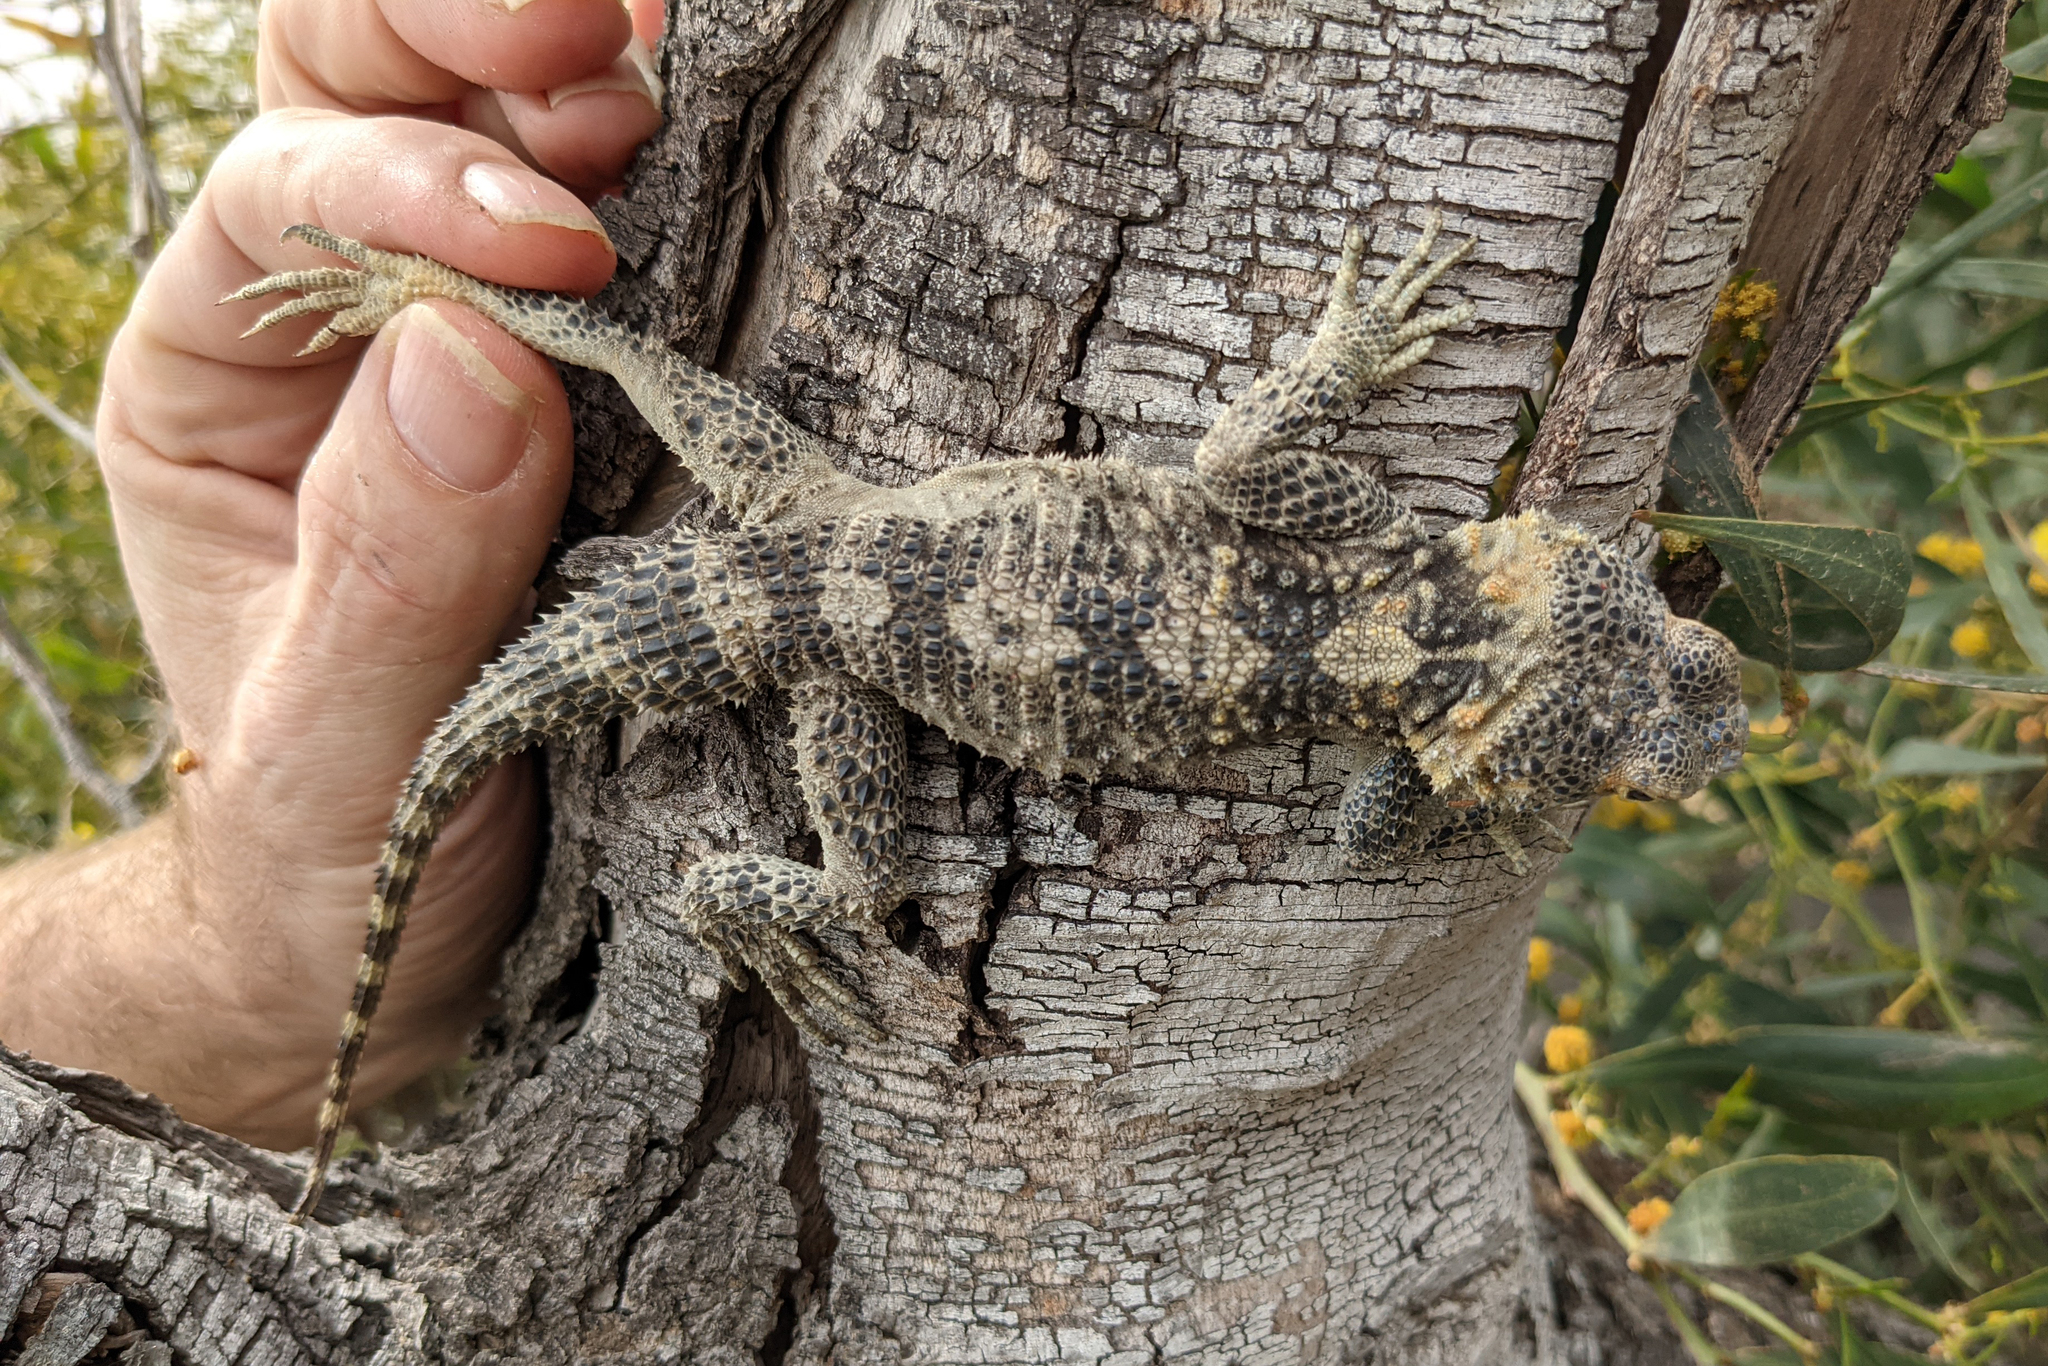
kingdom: Animalia
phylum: Chordata
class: Squamata
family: Agamidae
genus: Stellagama
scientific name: Stellagama stellio
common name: Starred agama
